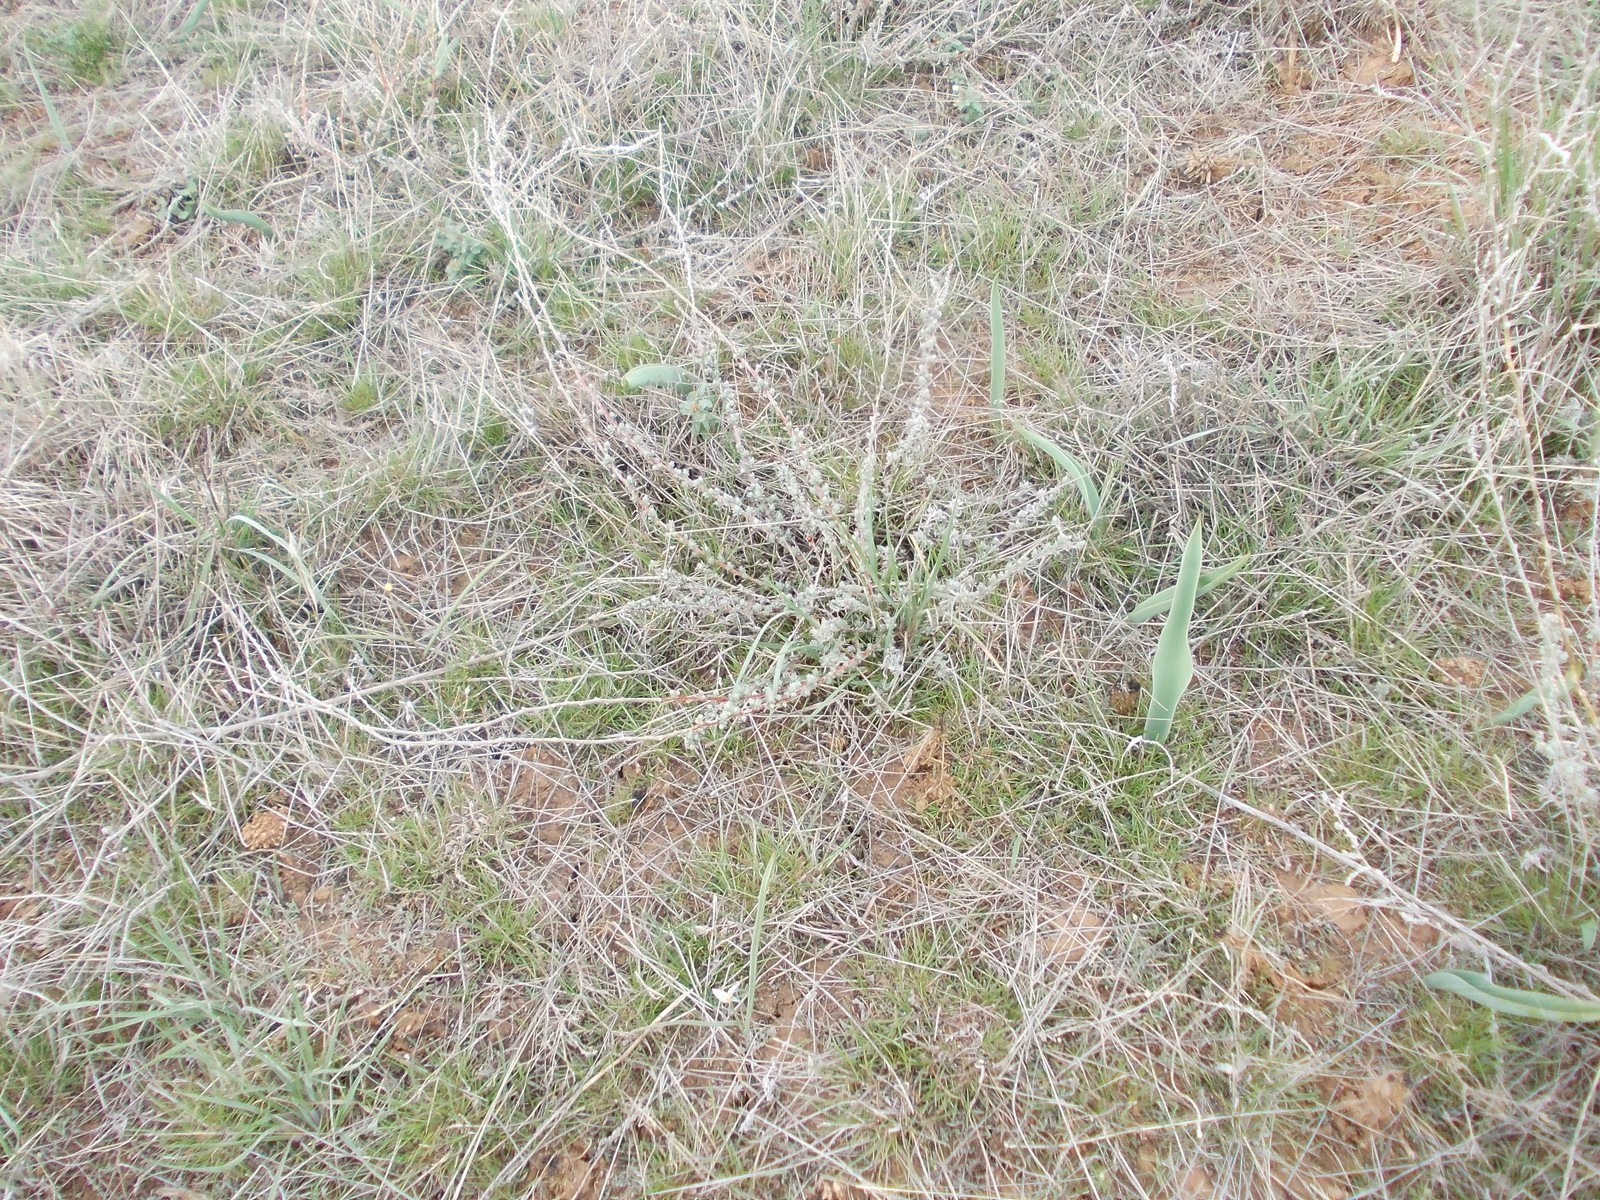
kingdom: Plantae
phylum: Tracheophyta
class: Magnoliopsida
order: Caryophyllales
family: Amaranthaceae
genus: Bassia
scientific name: Bassia prostrata
